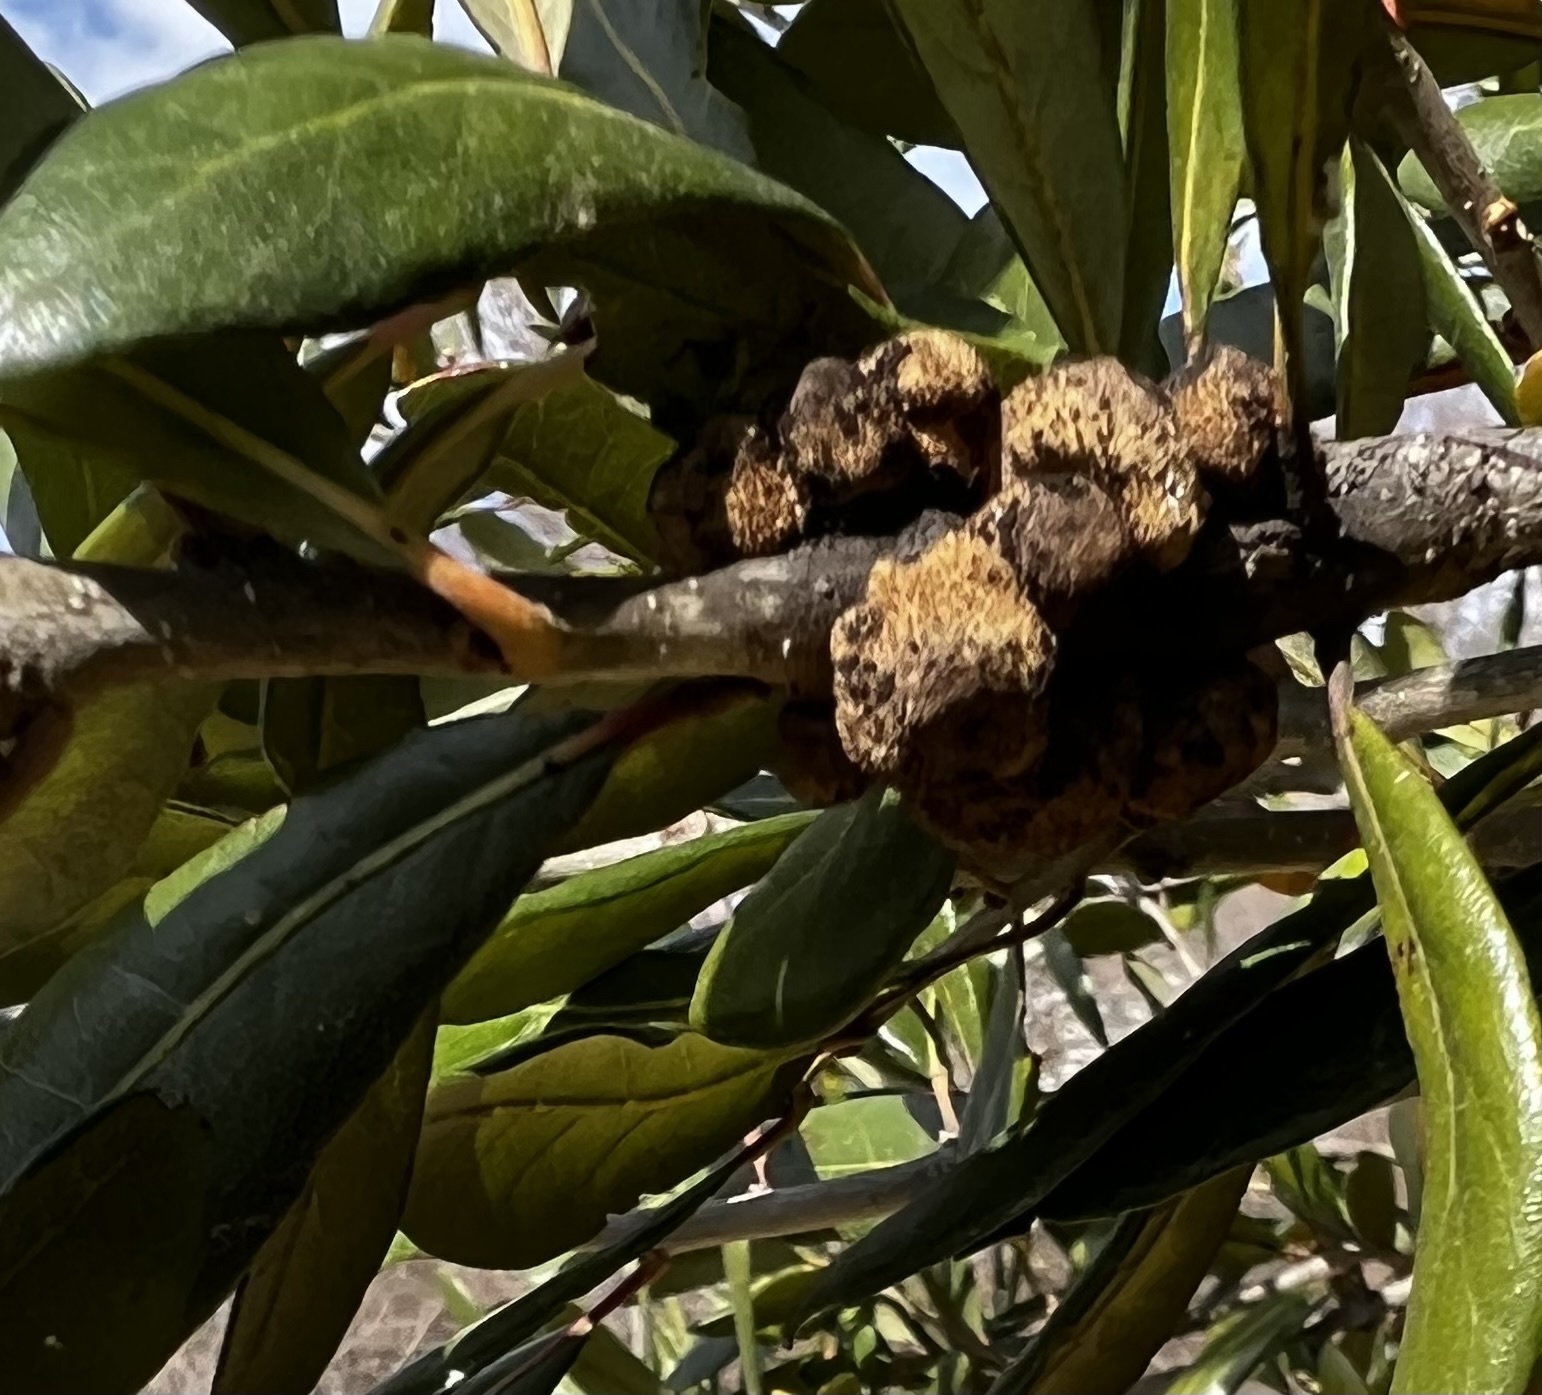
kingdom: Animalia
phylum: Arthropoda
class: Insecta
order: Hymenoptera
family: Cynipidae
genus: Disholcaspis
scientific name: Disholcaspis
